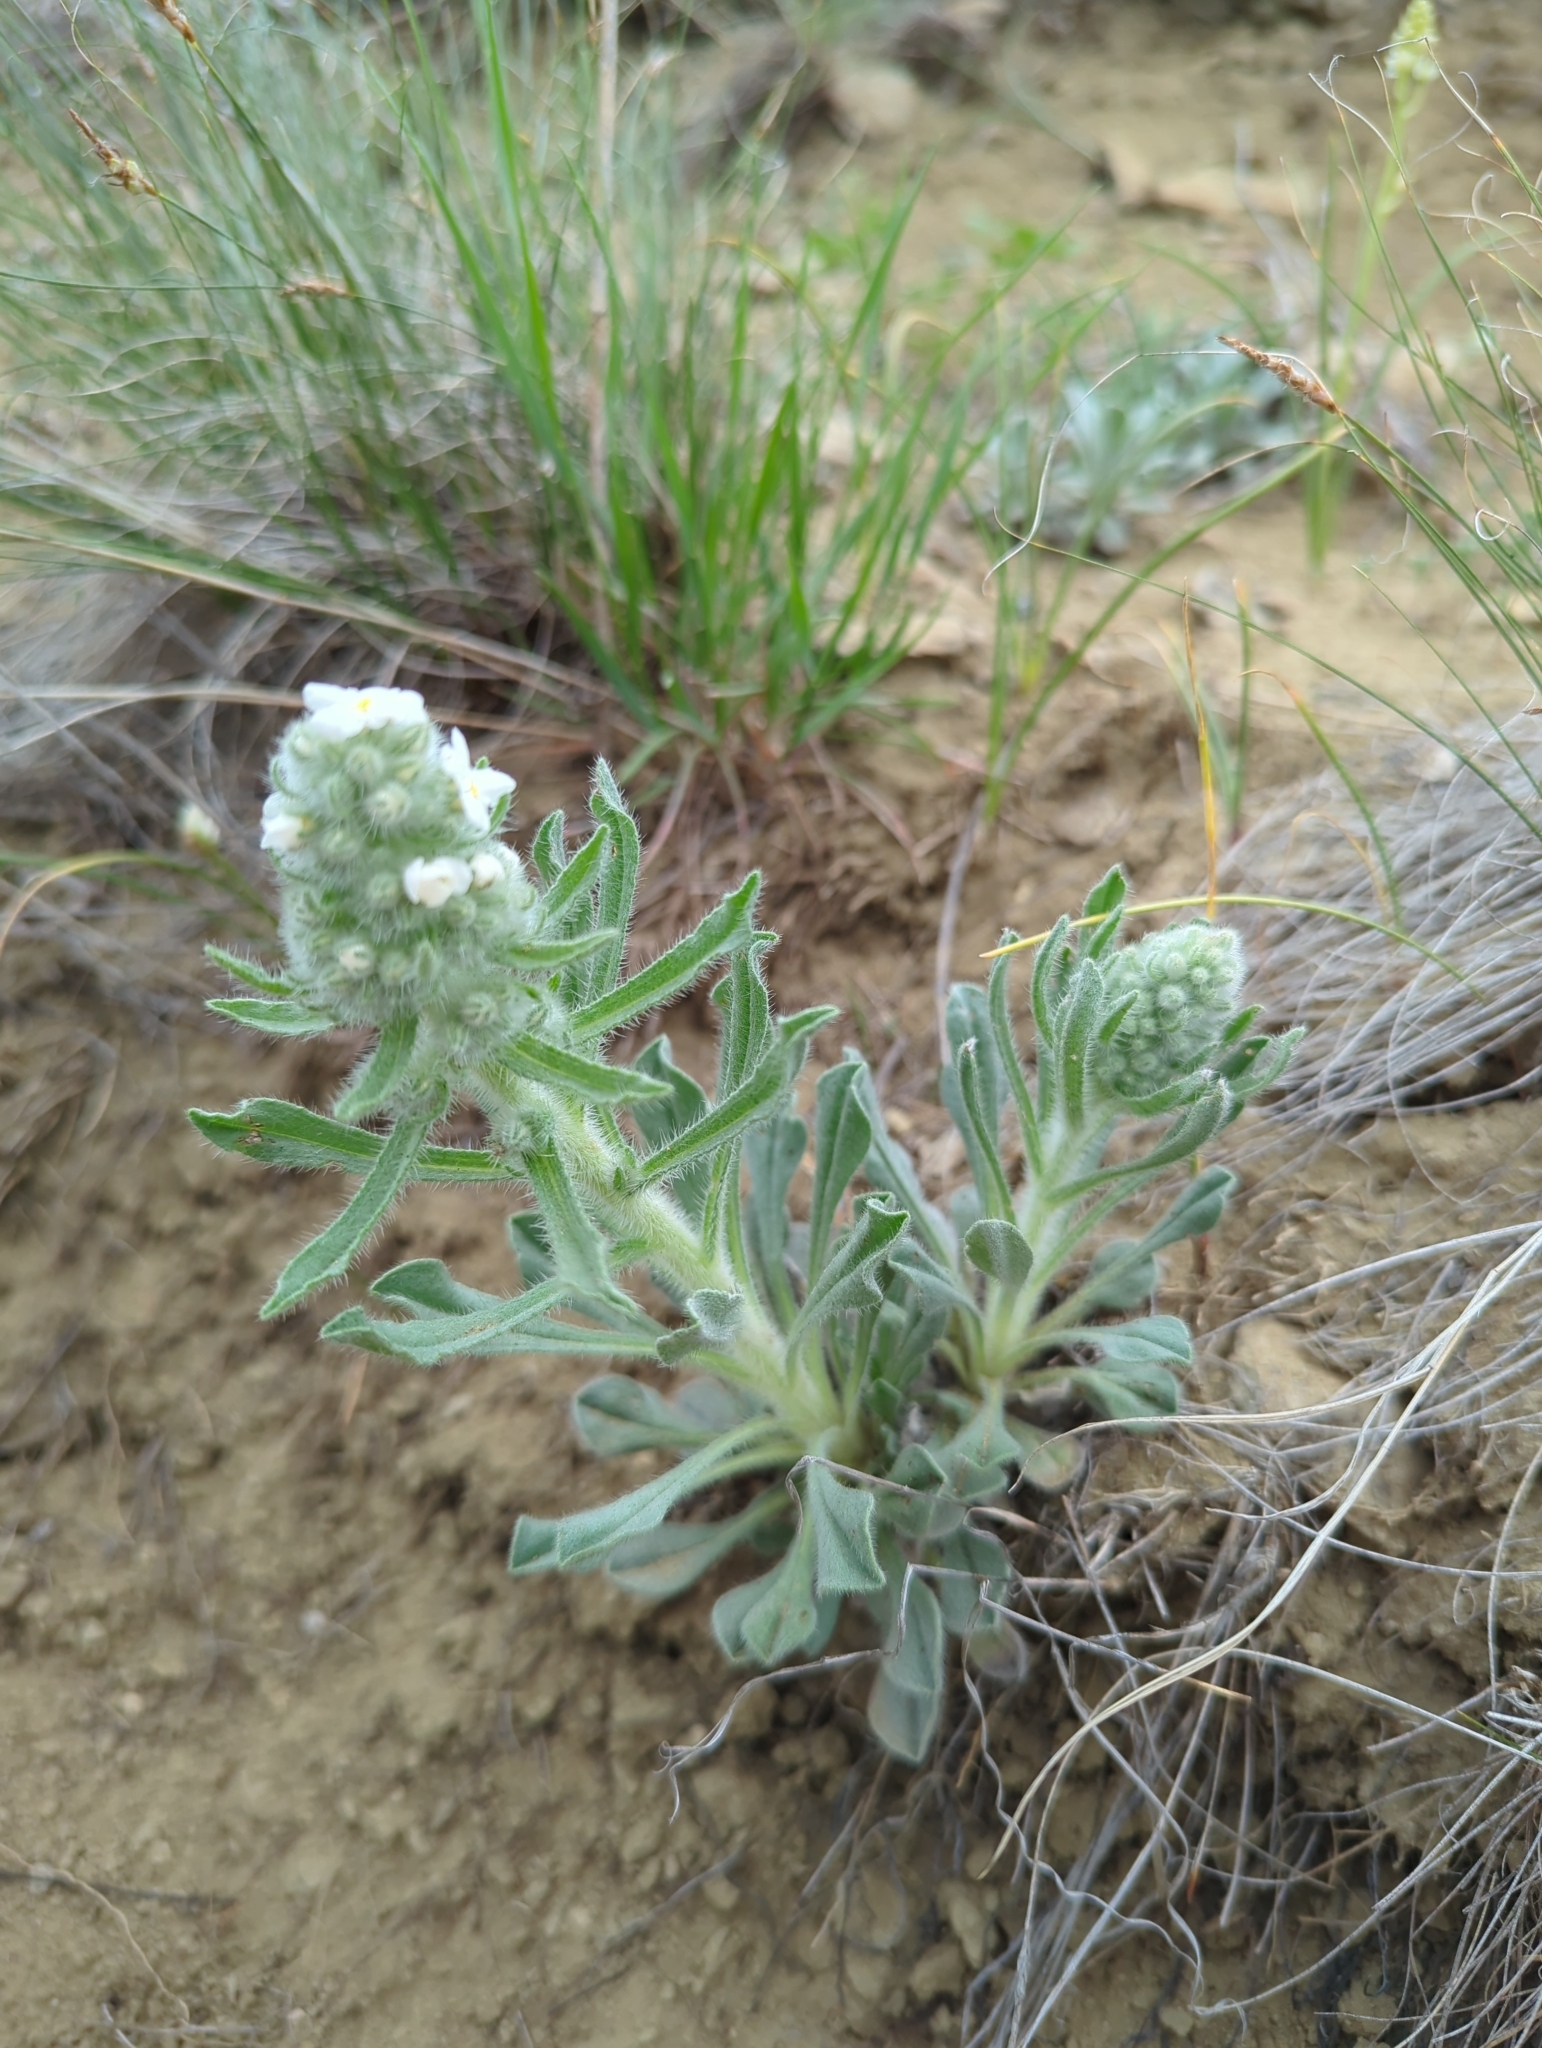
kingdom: Plantae
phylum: Tracheophyta
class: Magnoliopsida
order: Boraginales
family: Boraginaceae
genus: Oreocarya
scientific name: Oreocarya glomerata
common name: Macoun's cryptantha
